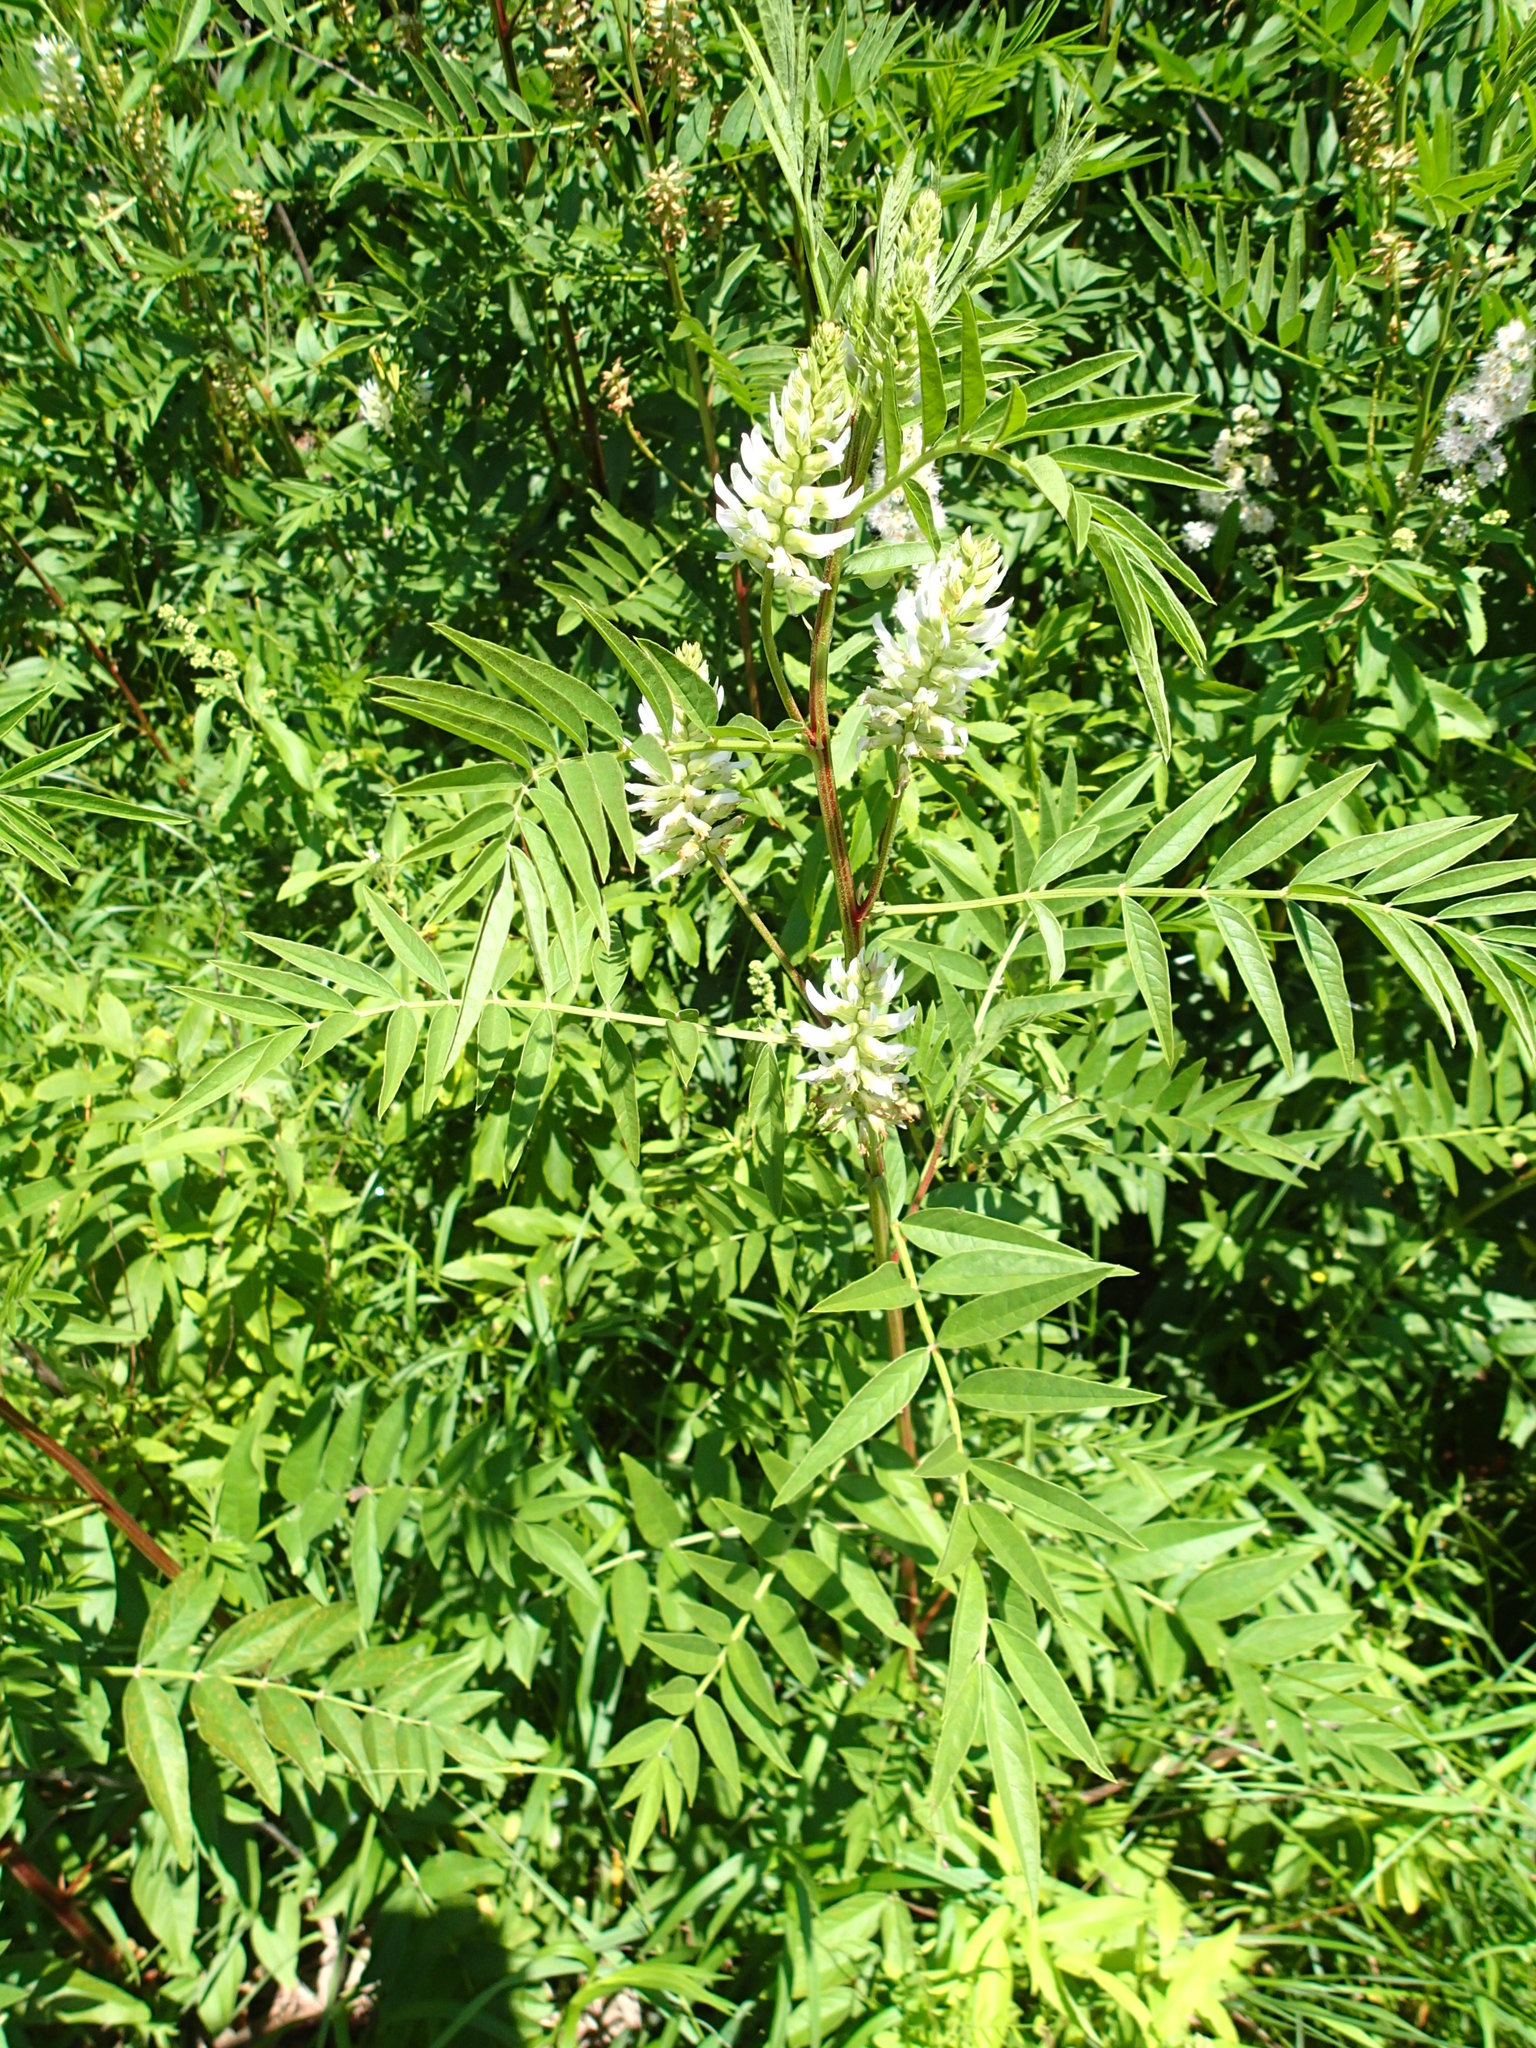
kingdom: Plantae
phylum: Tracheophyta
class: Magnoliopsida
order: Fabales
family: Fabaceae
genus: Glycyrrhiza
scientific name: Glycyrrhiza lepidota
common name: American liquorice
